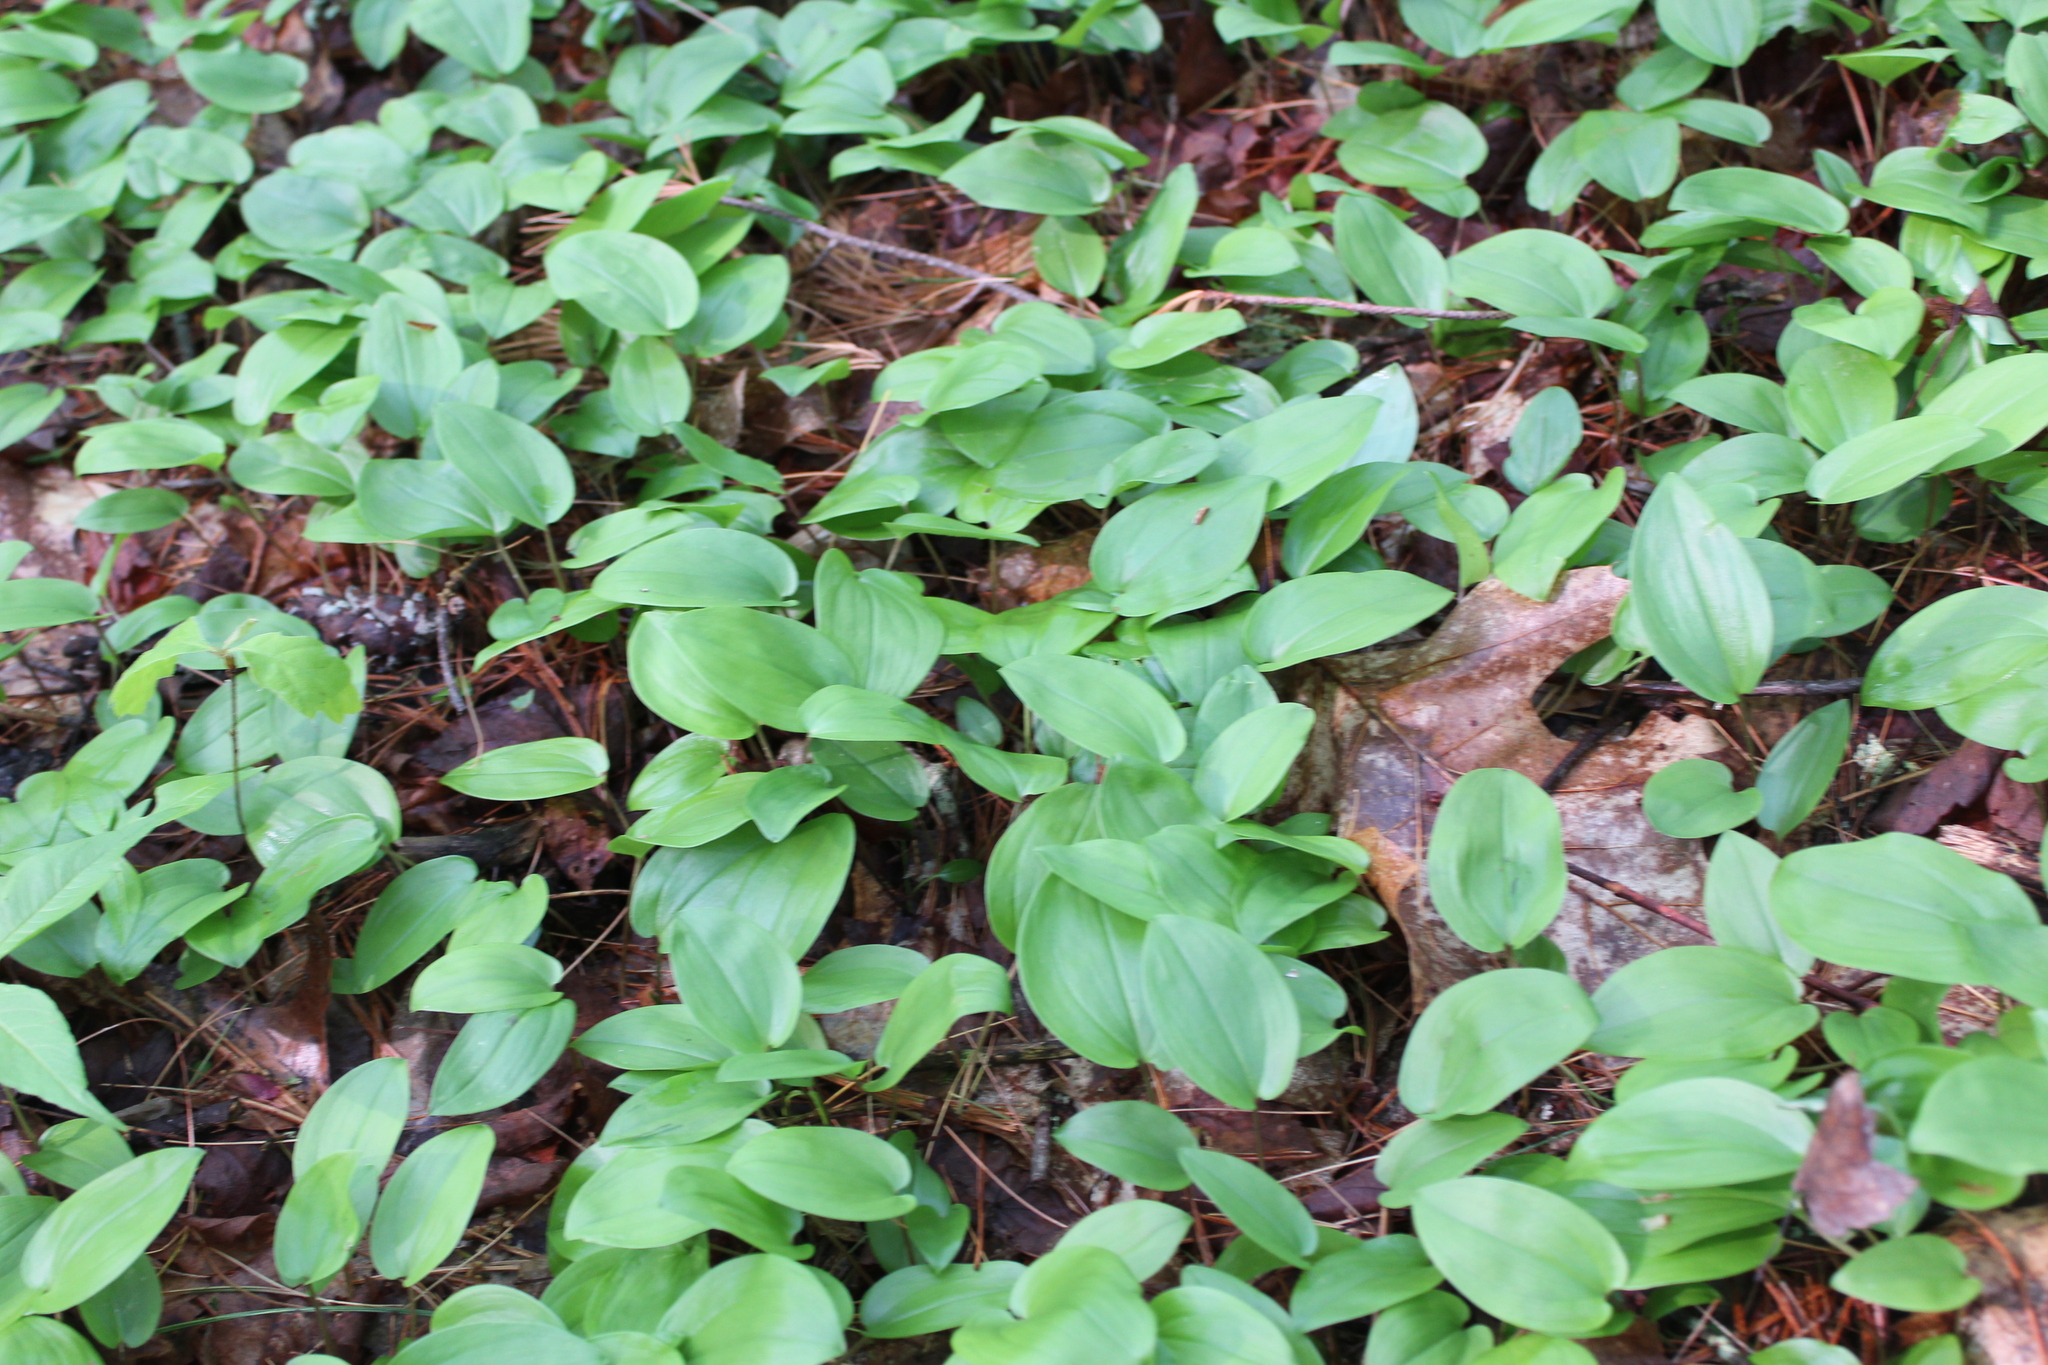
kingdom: Plantae
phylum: Tracheophyta
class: Liliopsida
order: Asparagales
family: Asparagaceae
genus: Maianthemum
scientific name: Maianthemum canadense
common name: False lily-of-the-valley
